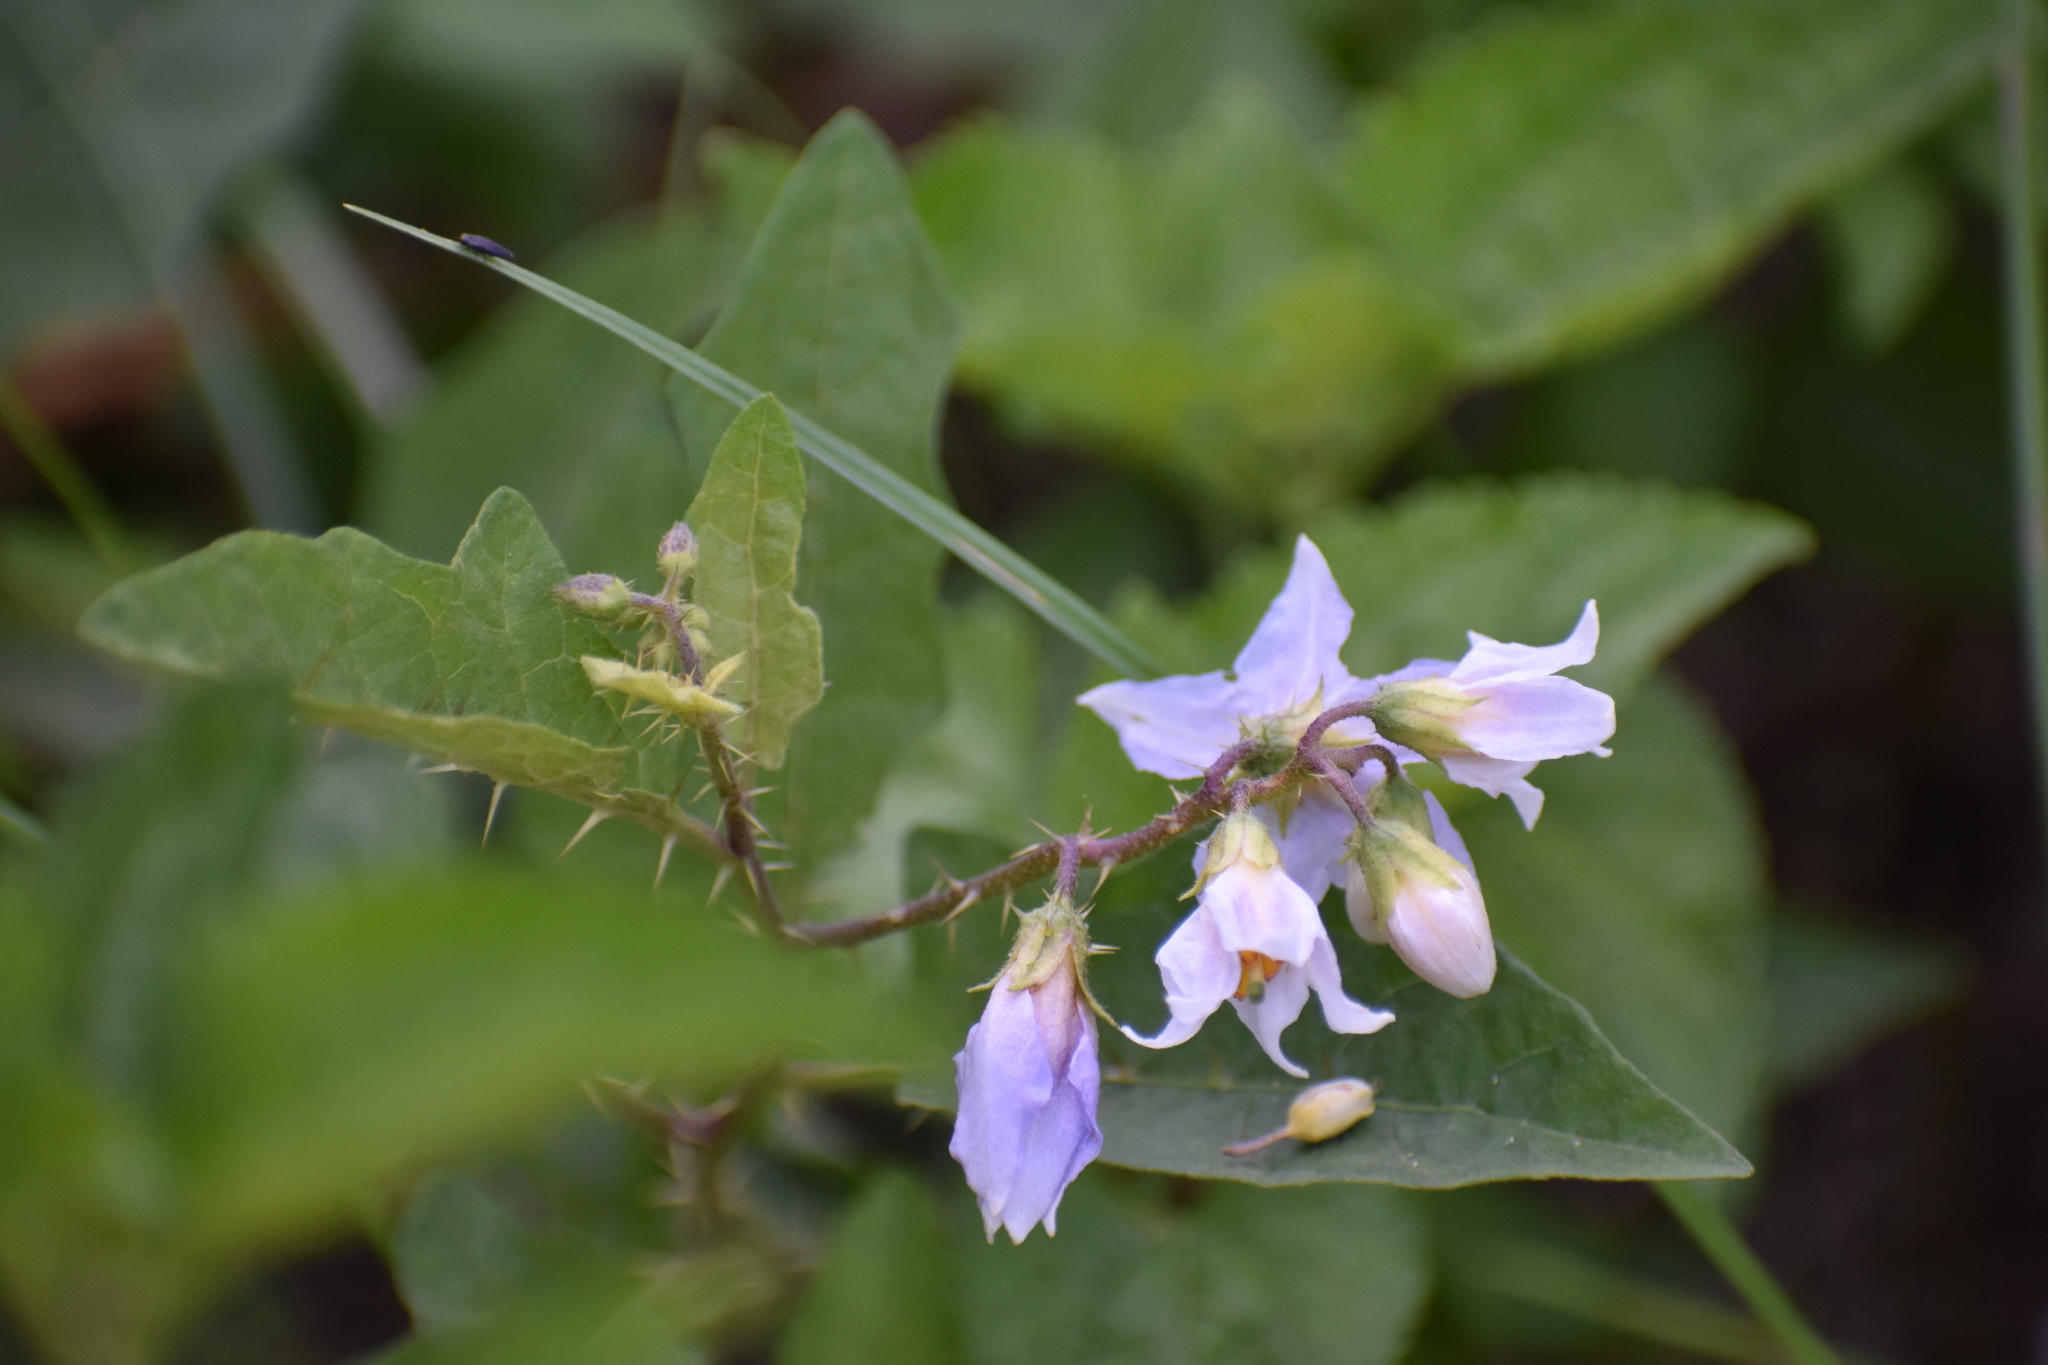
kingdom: Plantae
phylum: Tracheophyta
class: Magnoliopsida
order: Solanales
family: Solanaceae
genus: Solanum
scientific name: Solanum carolinense
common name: Horse-nettle
